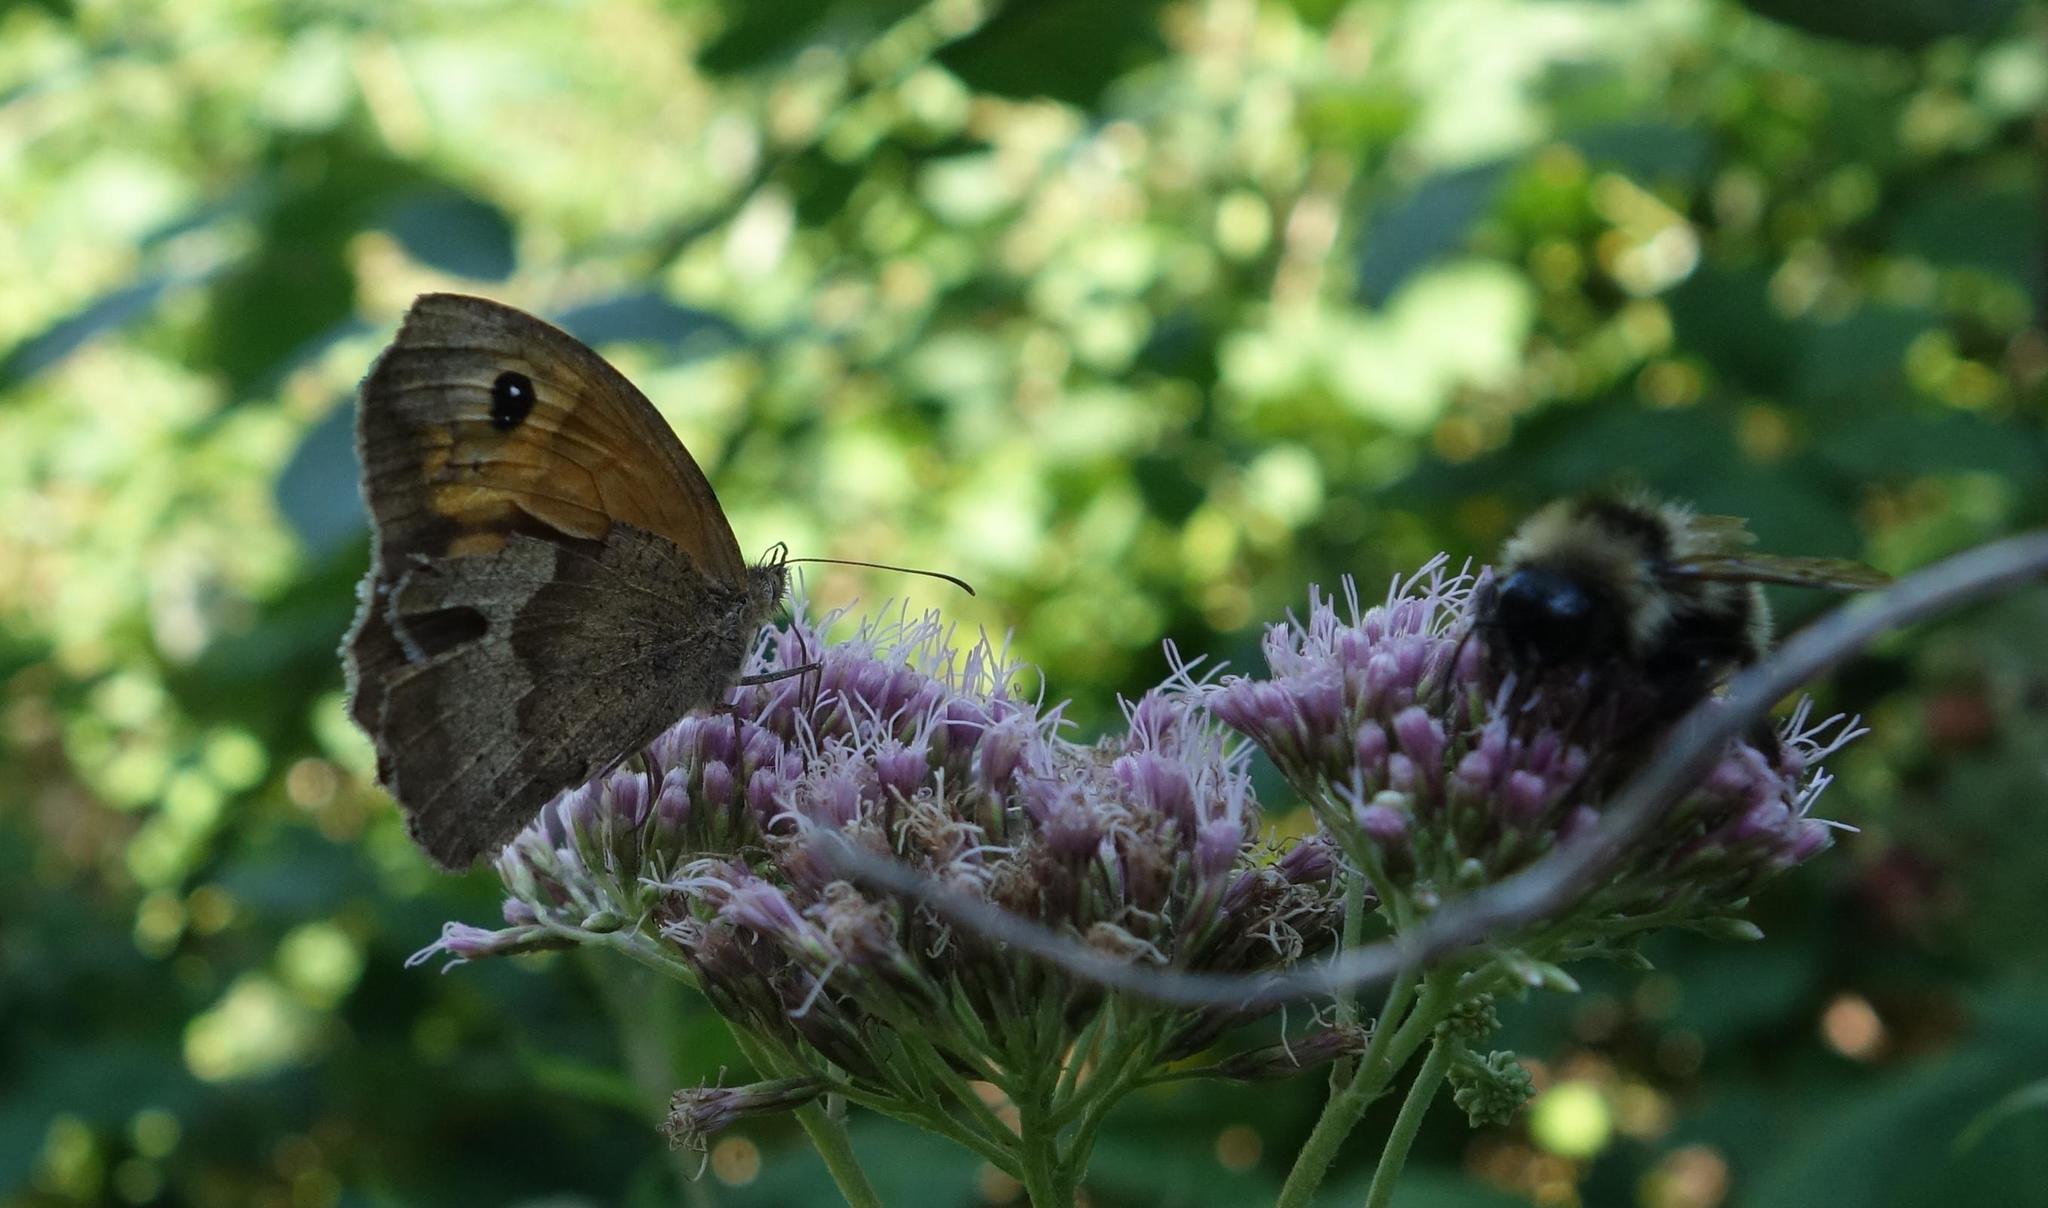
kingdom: Animalia
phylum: Arthropoda
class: Insecta
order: Lepidoptera
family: Nymphalidae
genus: Maniola
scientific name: Maniola jurtina
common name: Meadow brown
